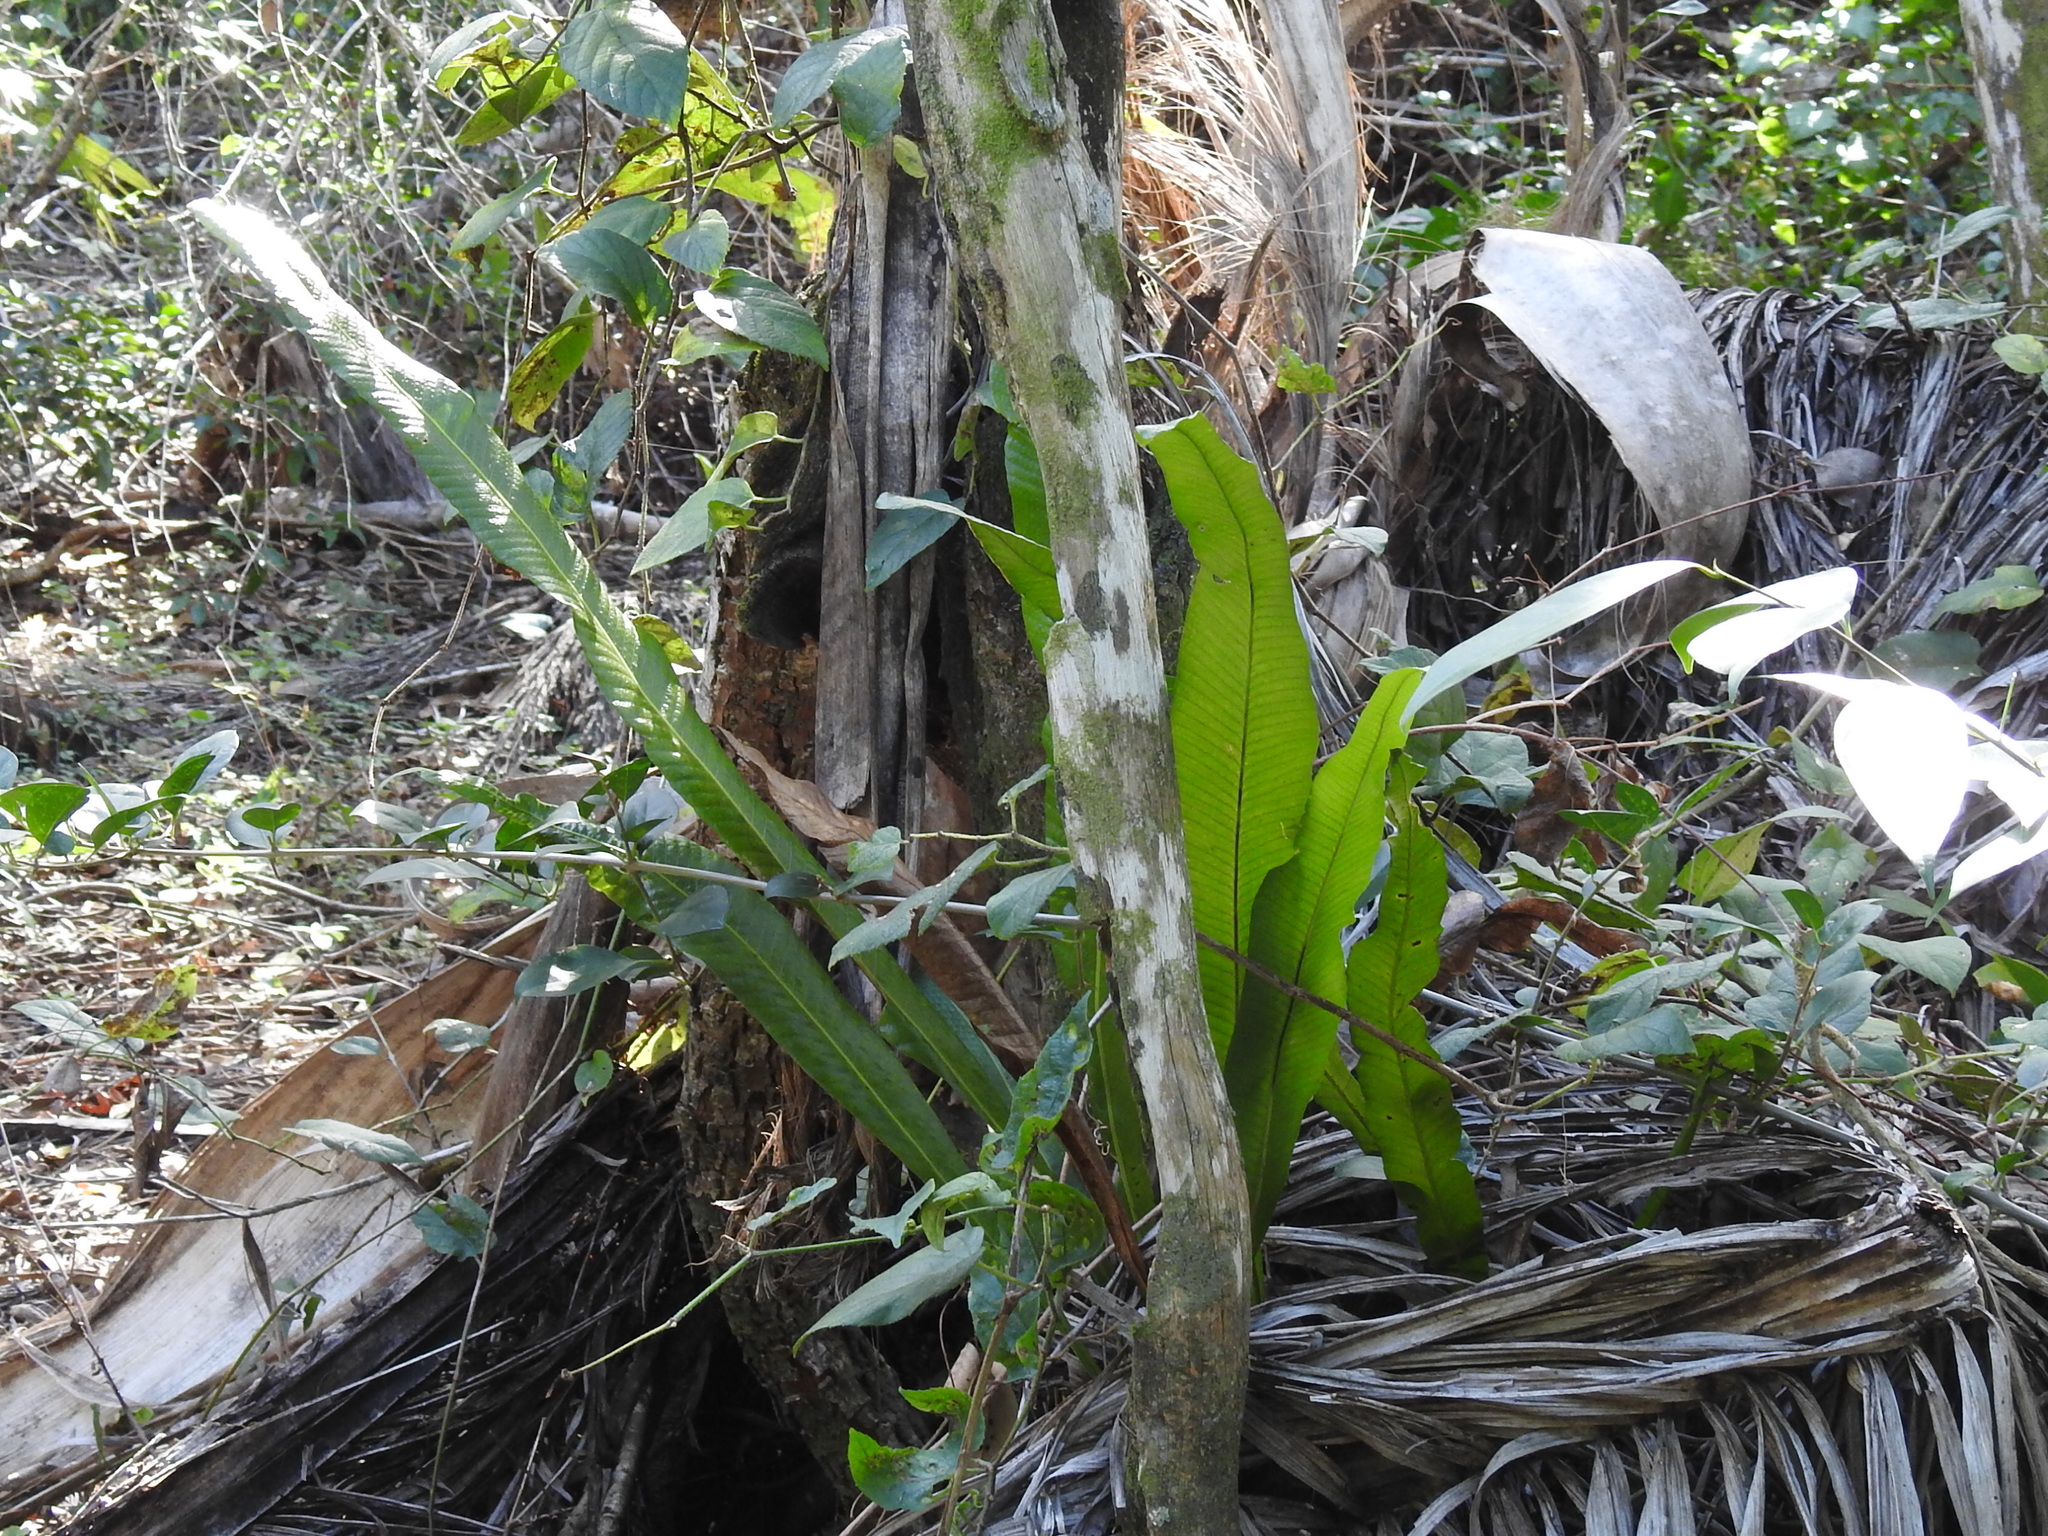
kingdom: Plantae
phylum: Tracheophyta
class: Polypodiopsida
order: Polypodiales
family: Polypodiaceae
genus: Campyloneurum
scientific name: Campyloneurum phyllitidis
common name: Cow-tongue fern
